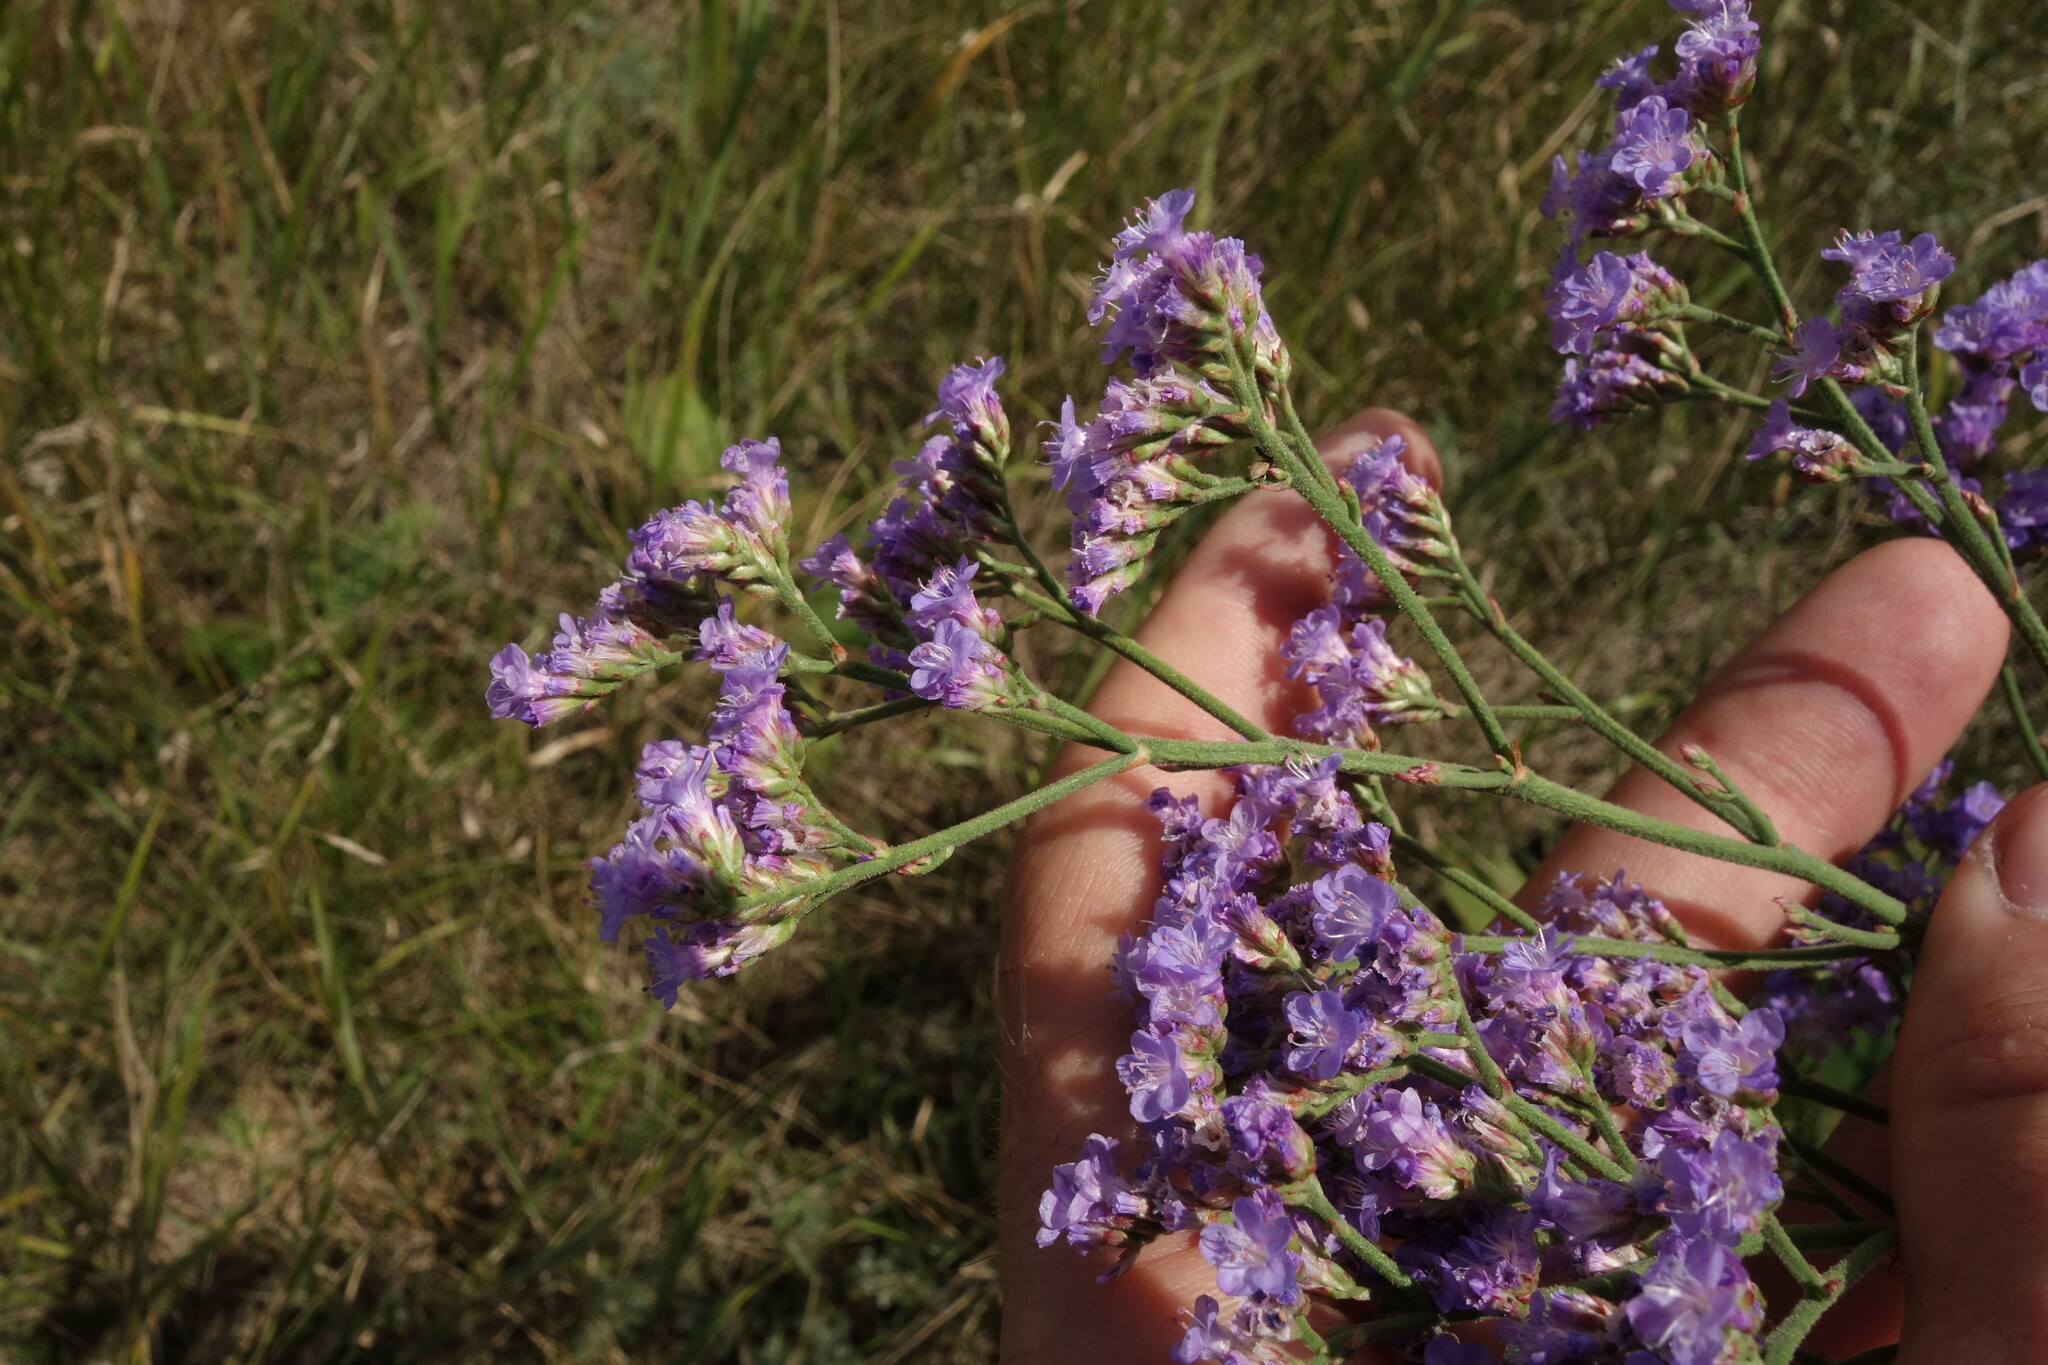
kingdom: Plantae
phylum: Tracheophyta
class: Magnoliopsida
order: Caryophyllales
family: Plumbaginaceae
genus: Limonium
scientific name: Limonium tomentellum
